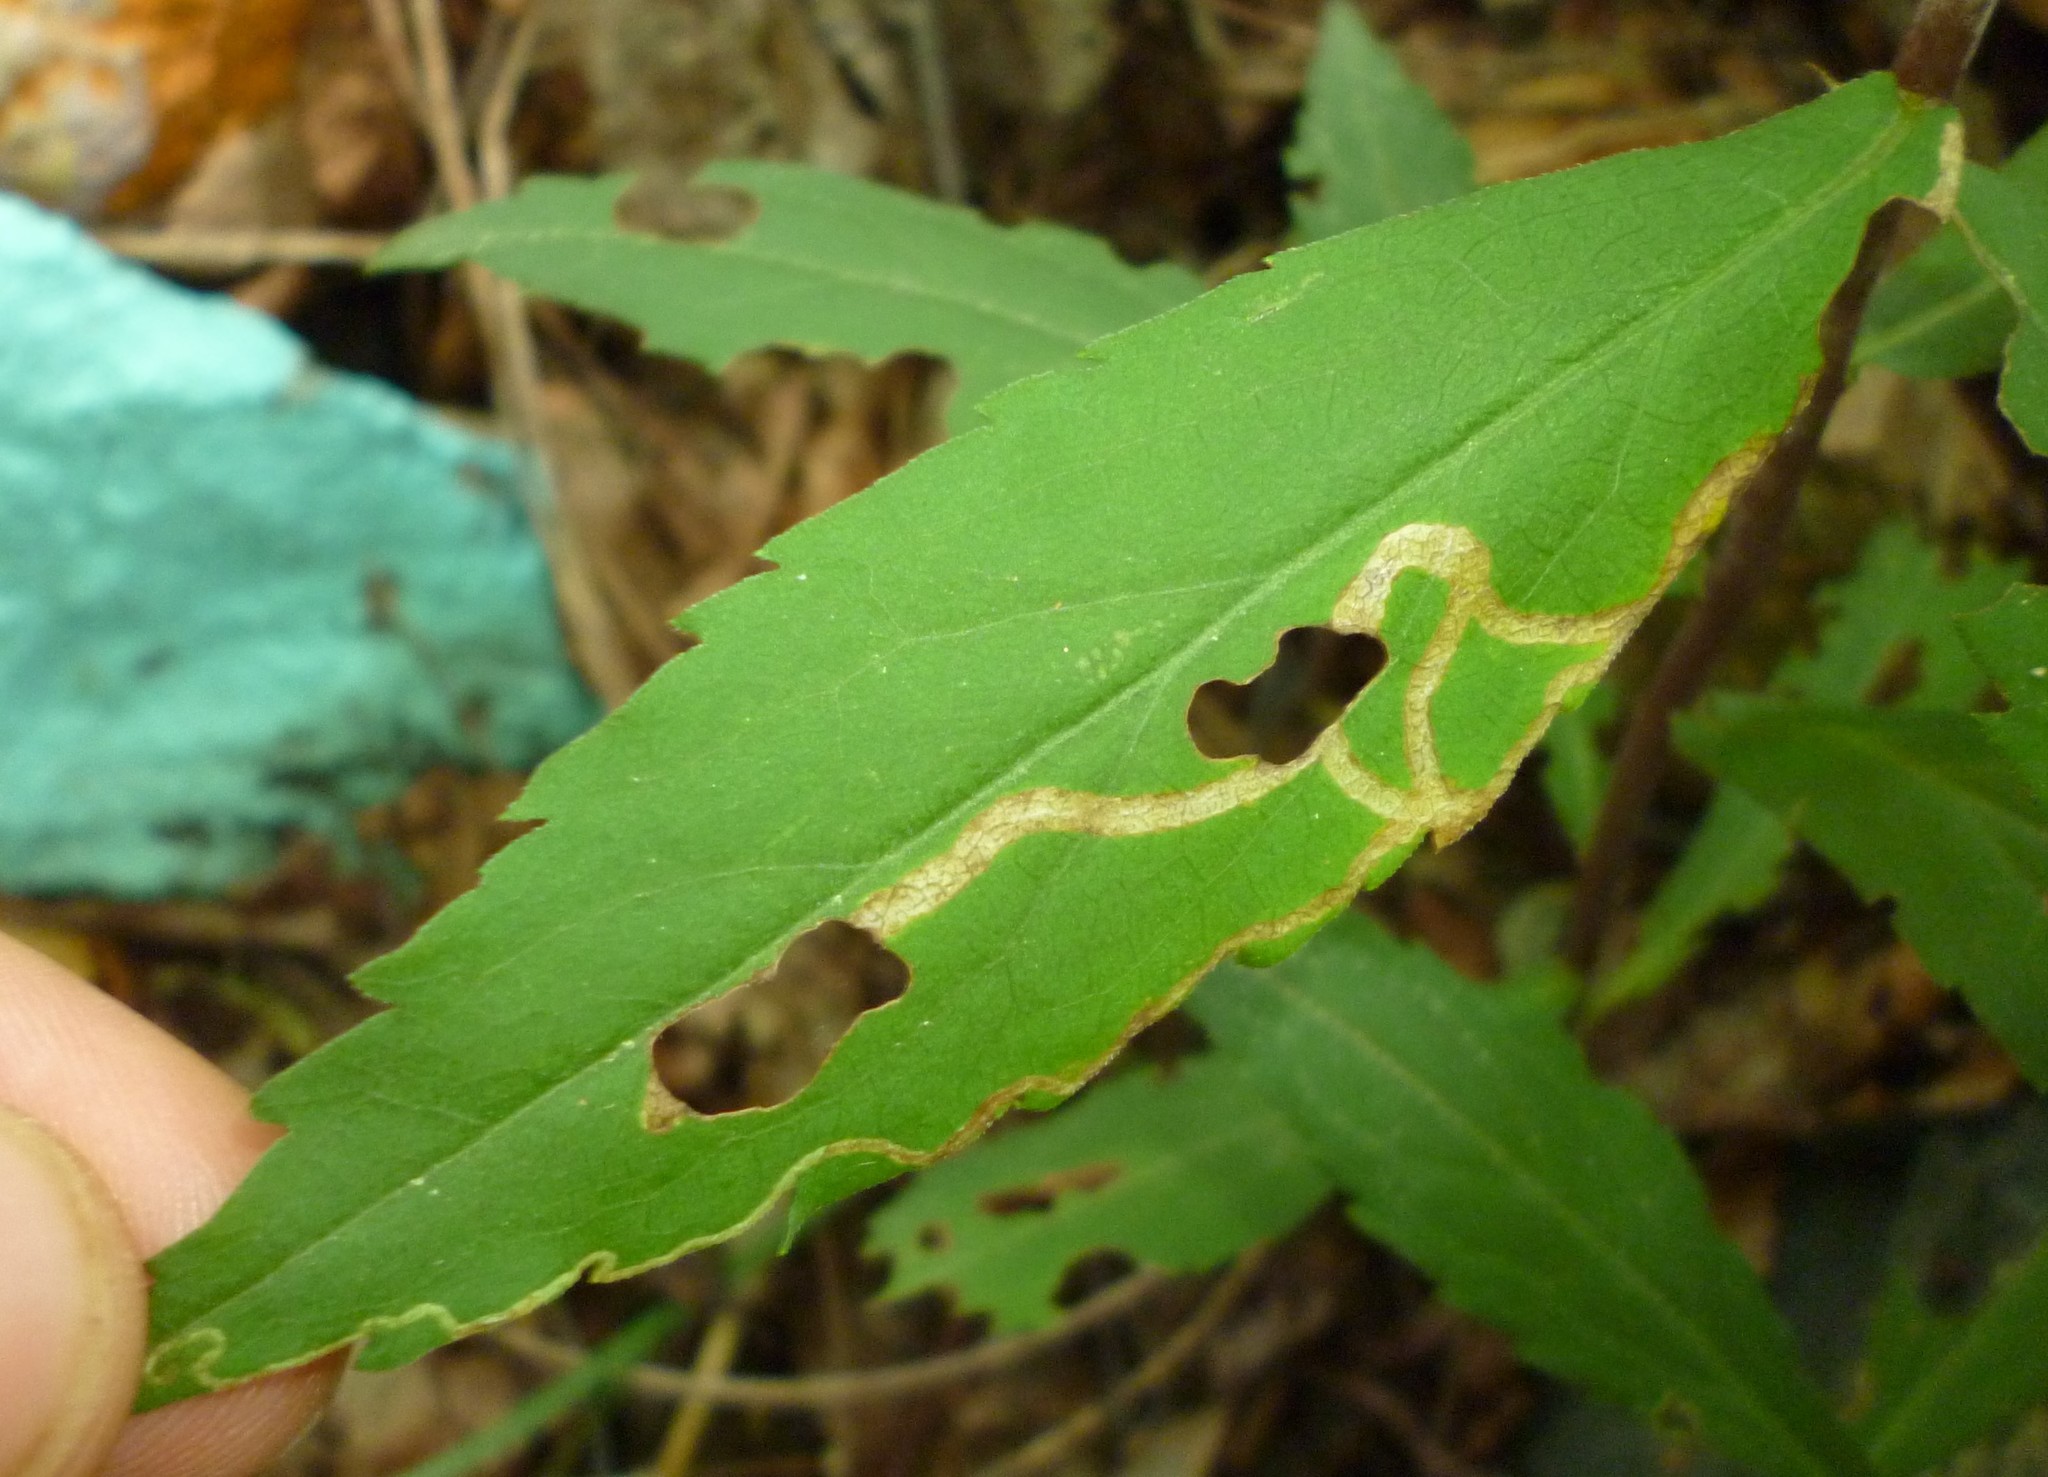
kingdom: Animalia
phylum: Arthropoda
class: Insecta
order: Diptera
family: Agromyzidae
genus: Ophiomyia
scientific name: Ophiomyia maura
